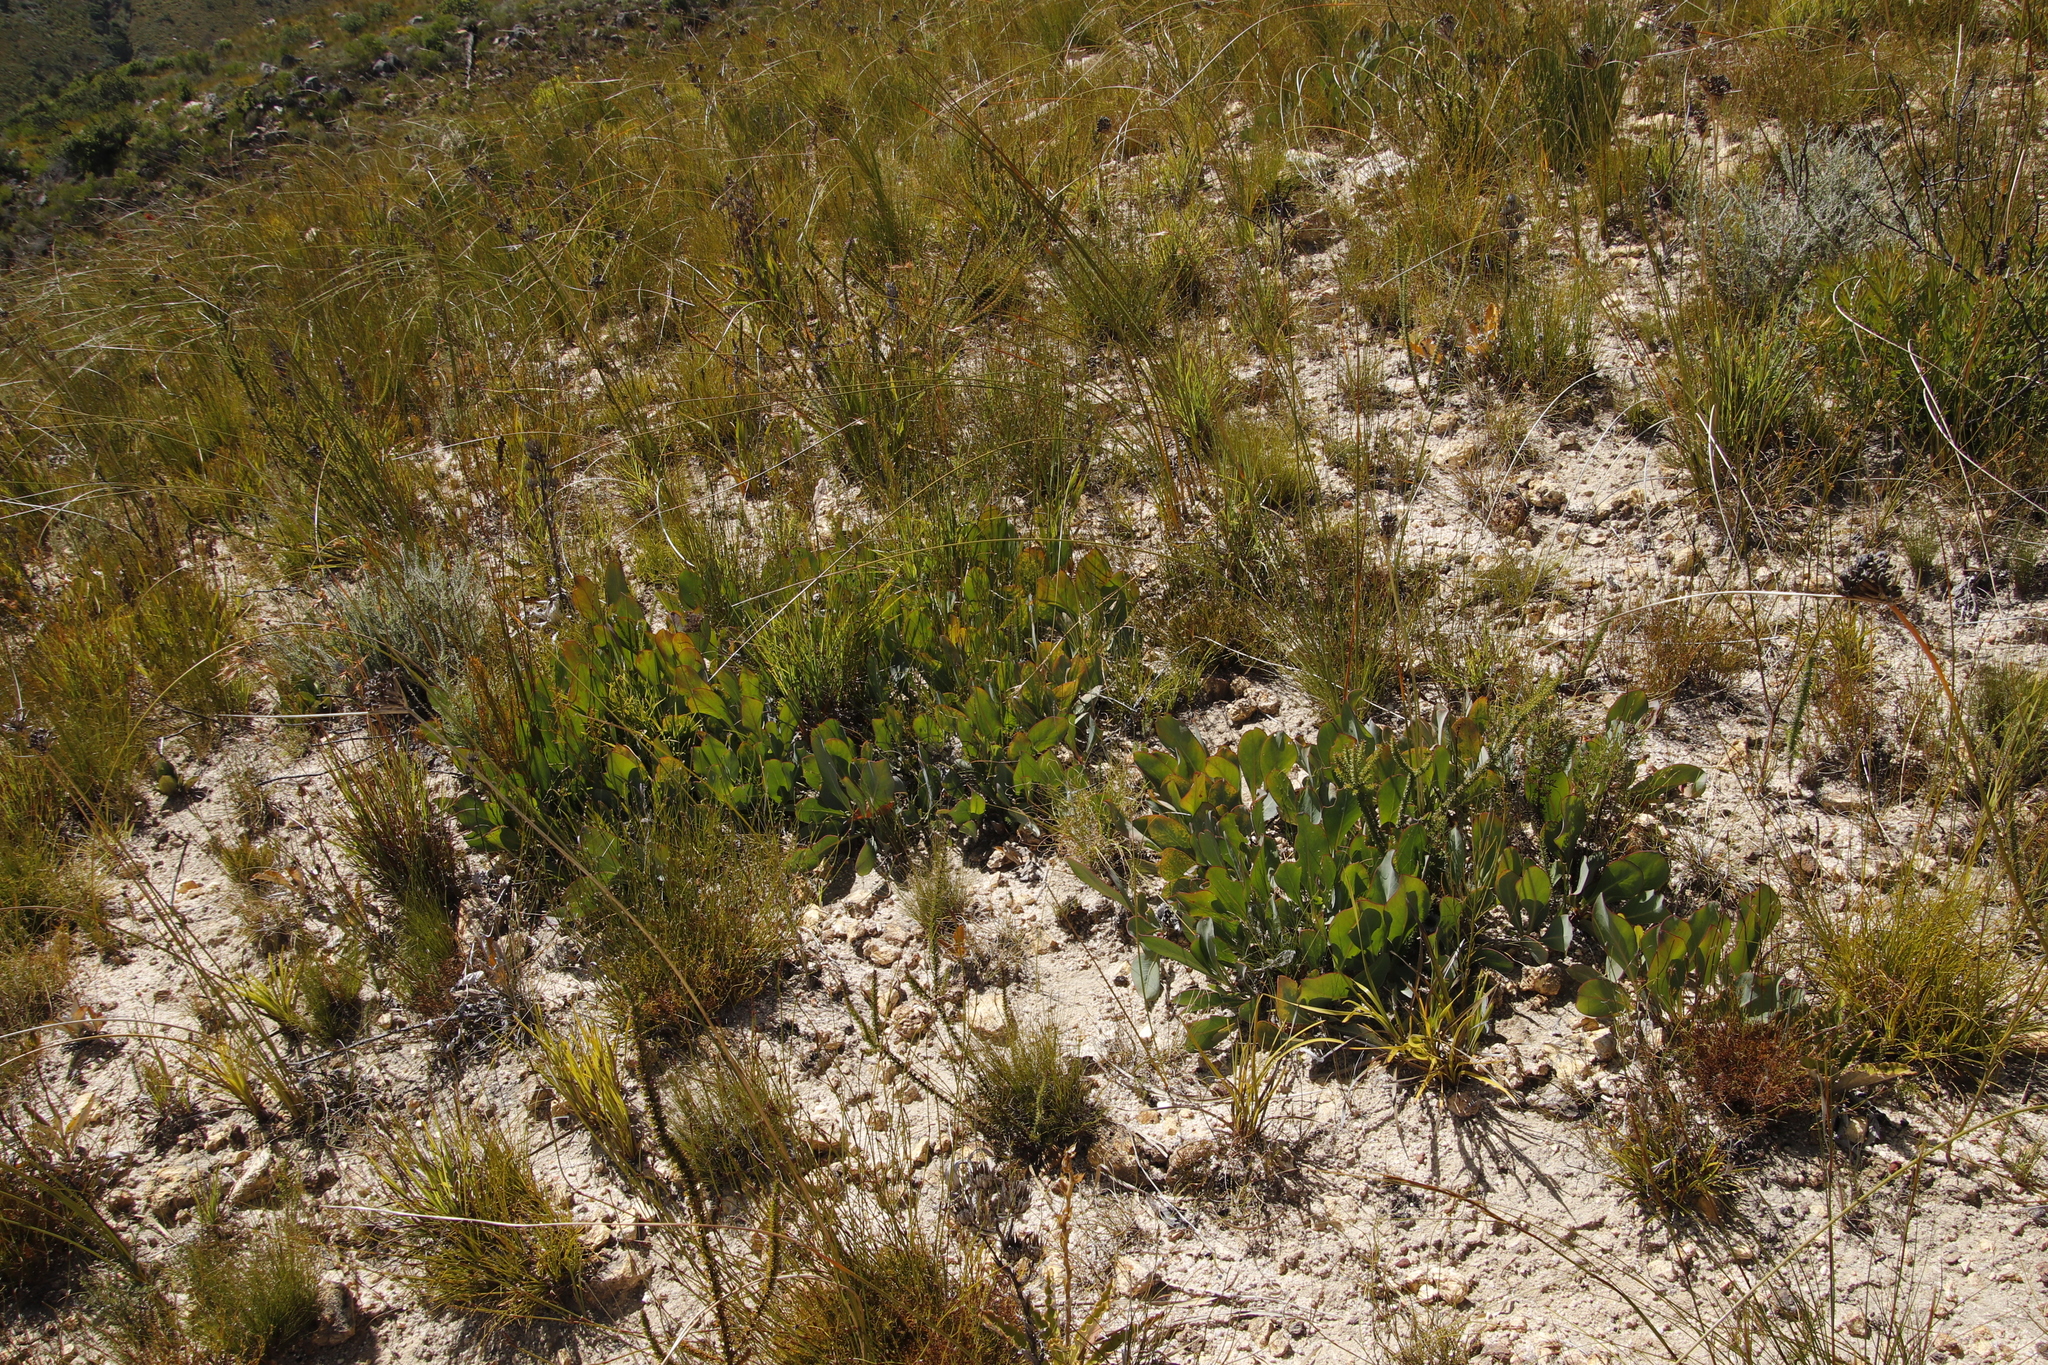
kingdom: Plantae
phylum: Tracheophyta
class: Magnoliopsida
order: Proteales
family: Proteaceae
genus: Protea
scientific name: Protea acaulos
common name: Common ground sugarbush
